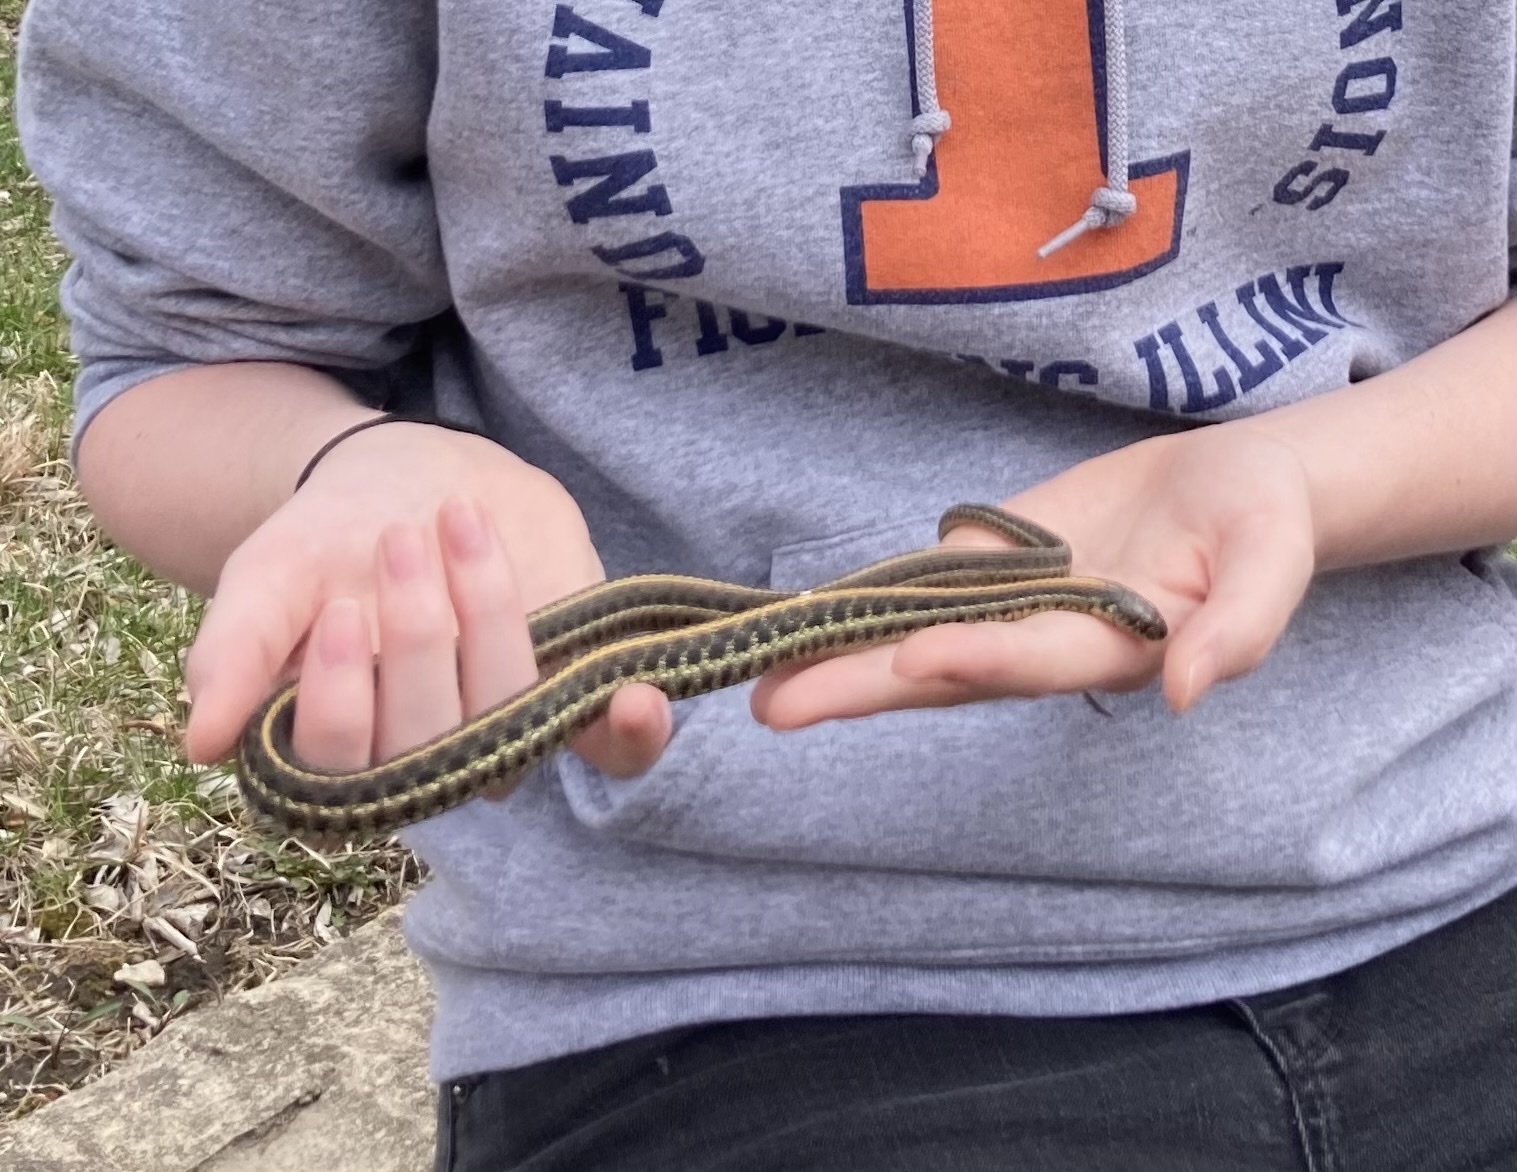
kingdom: Animalia
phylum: Chordata
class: Squamata
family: Colubridae
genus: Thamnophis
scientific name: Thamnophis radix
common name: Plains garter snake
